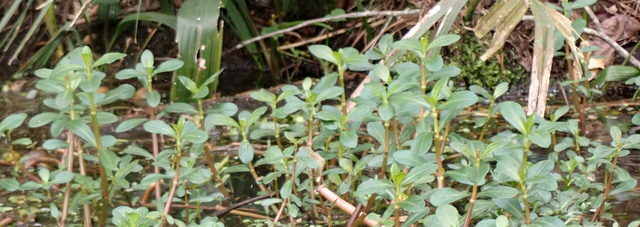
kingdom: Plantae
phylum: Tracheophyta
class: Magnoliopsida
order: Caryophyllales
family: Amaranthaceae
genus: Alternanthera
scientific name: Alternanthera philoxeroides
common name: Alligatorweed
